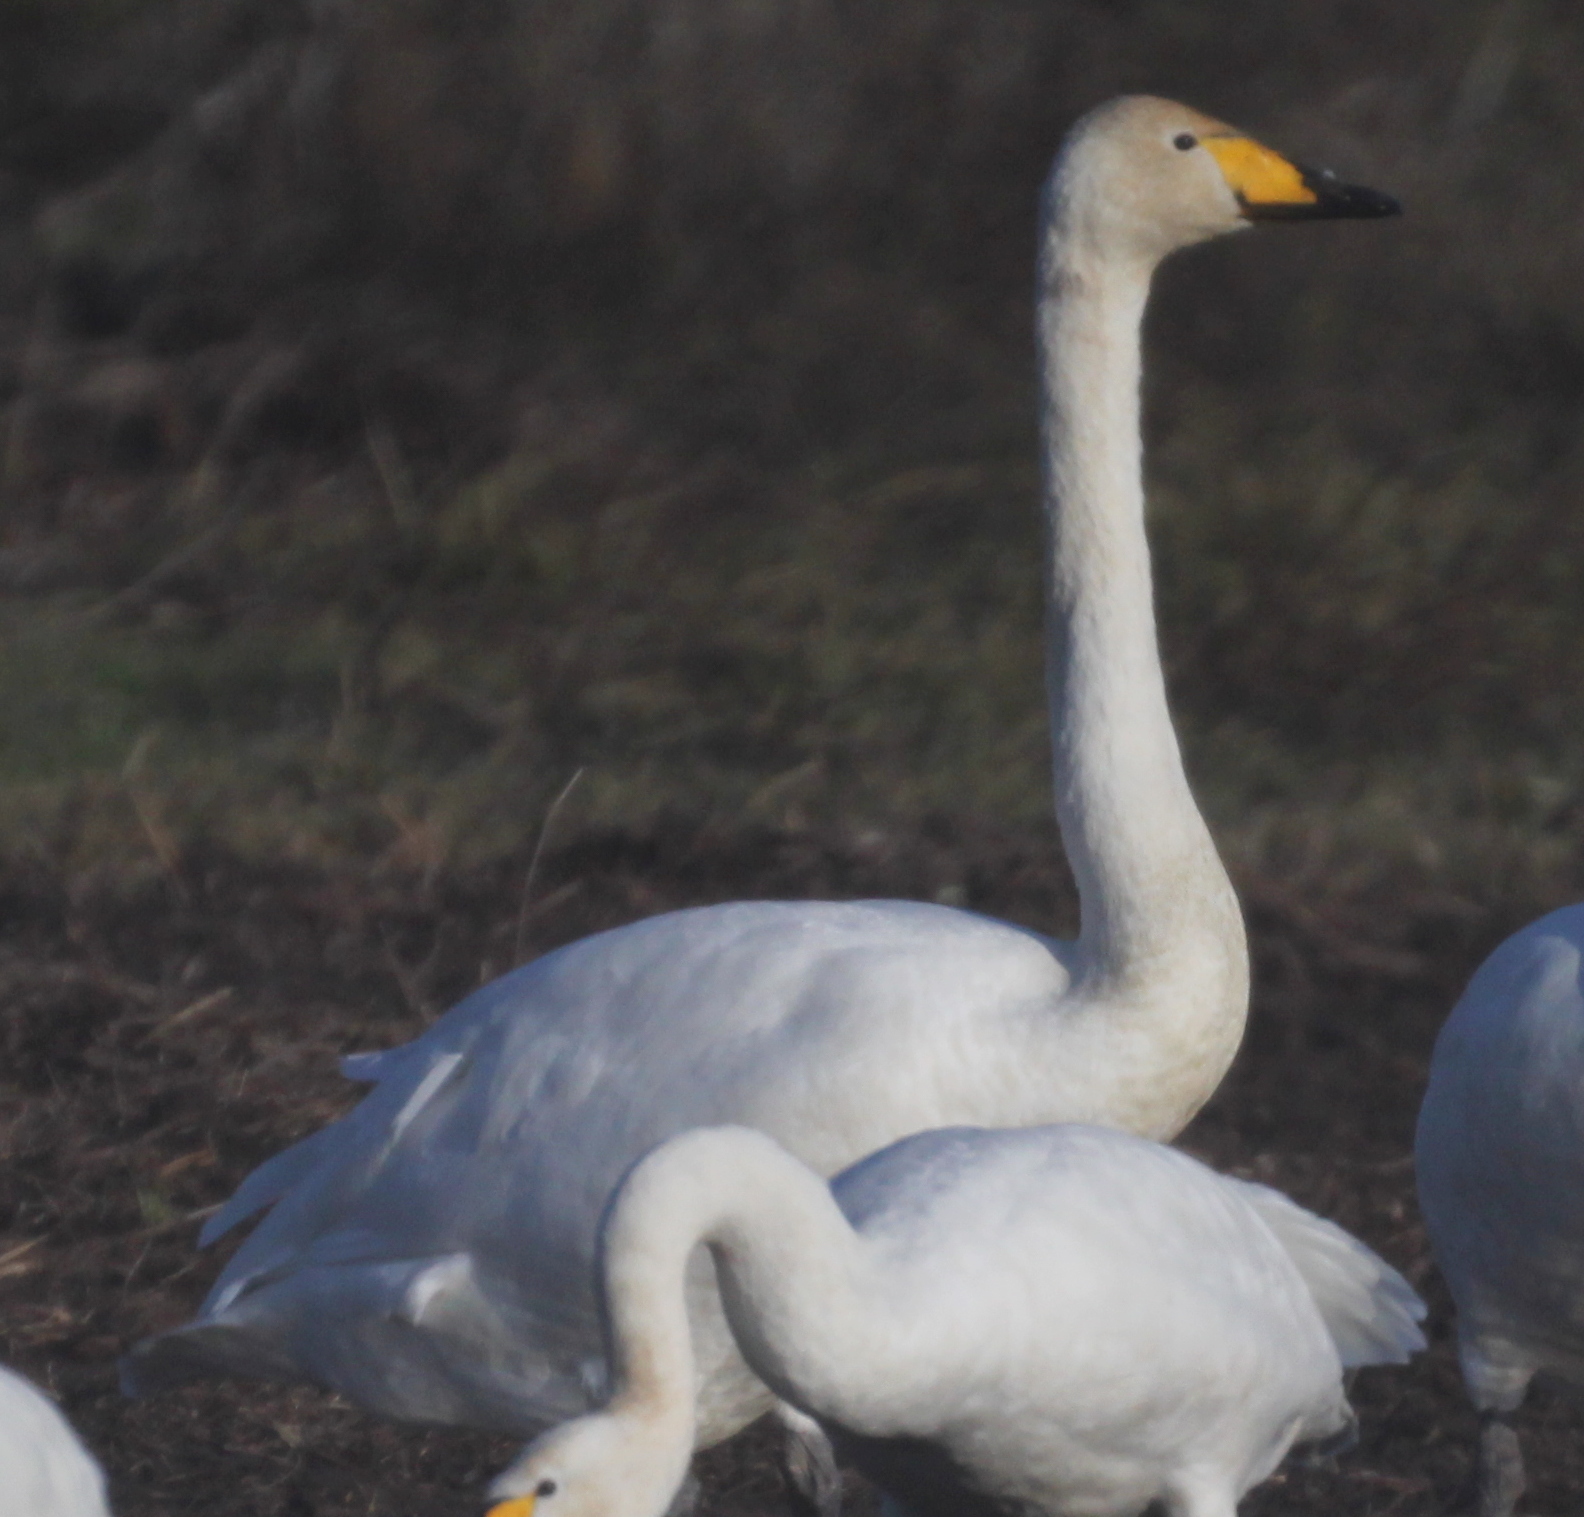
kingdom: Animalia
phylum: Chordata
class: Aves
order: Anseriformes
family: Anatidae
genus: Cygnus
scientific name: Cygnus cygnus
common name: Whooper swan
